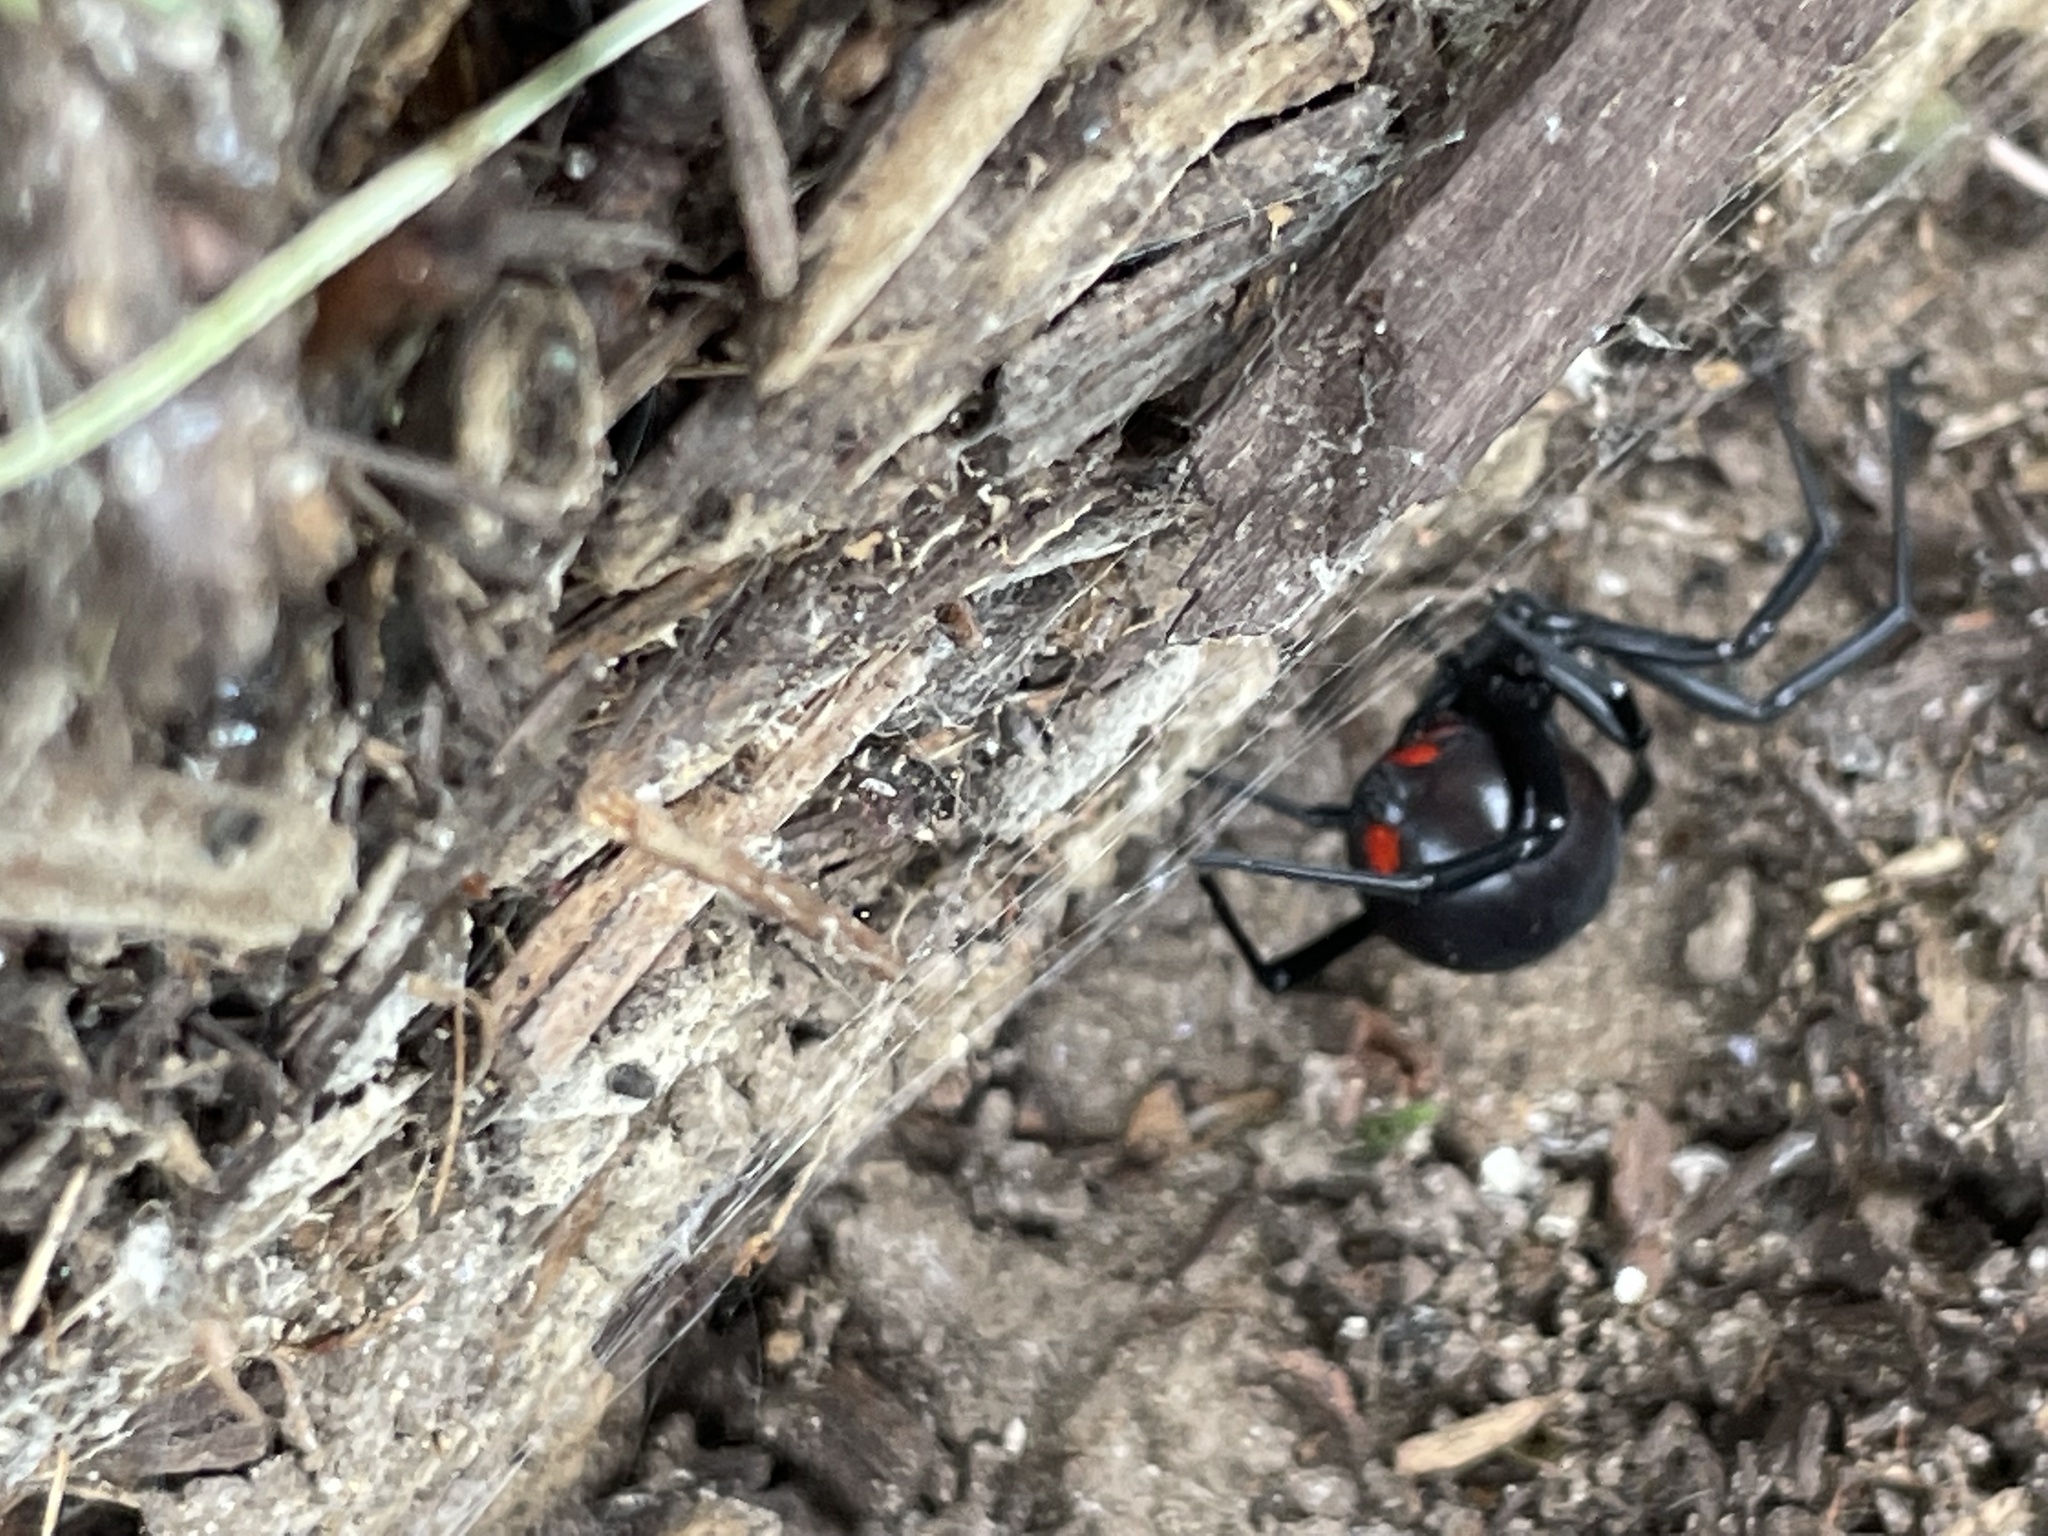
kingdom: Animalia
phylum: Arthropoda
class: Arachnida
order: Araneae
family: Theridiidae
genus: Latrodectus
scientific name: Latrodectus mactans
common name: Cobweb spiders
